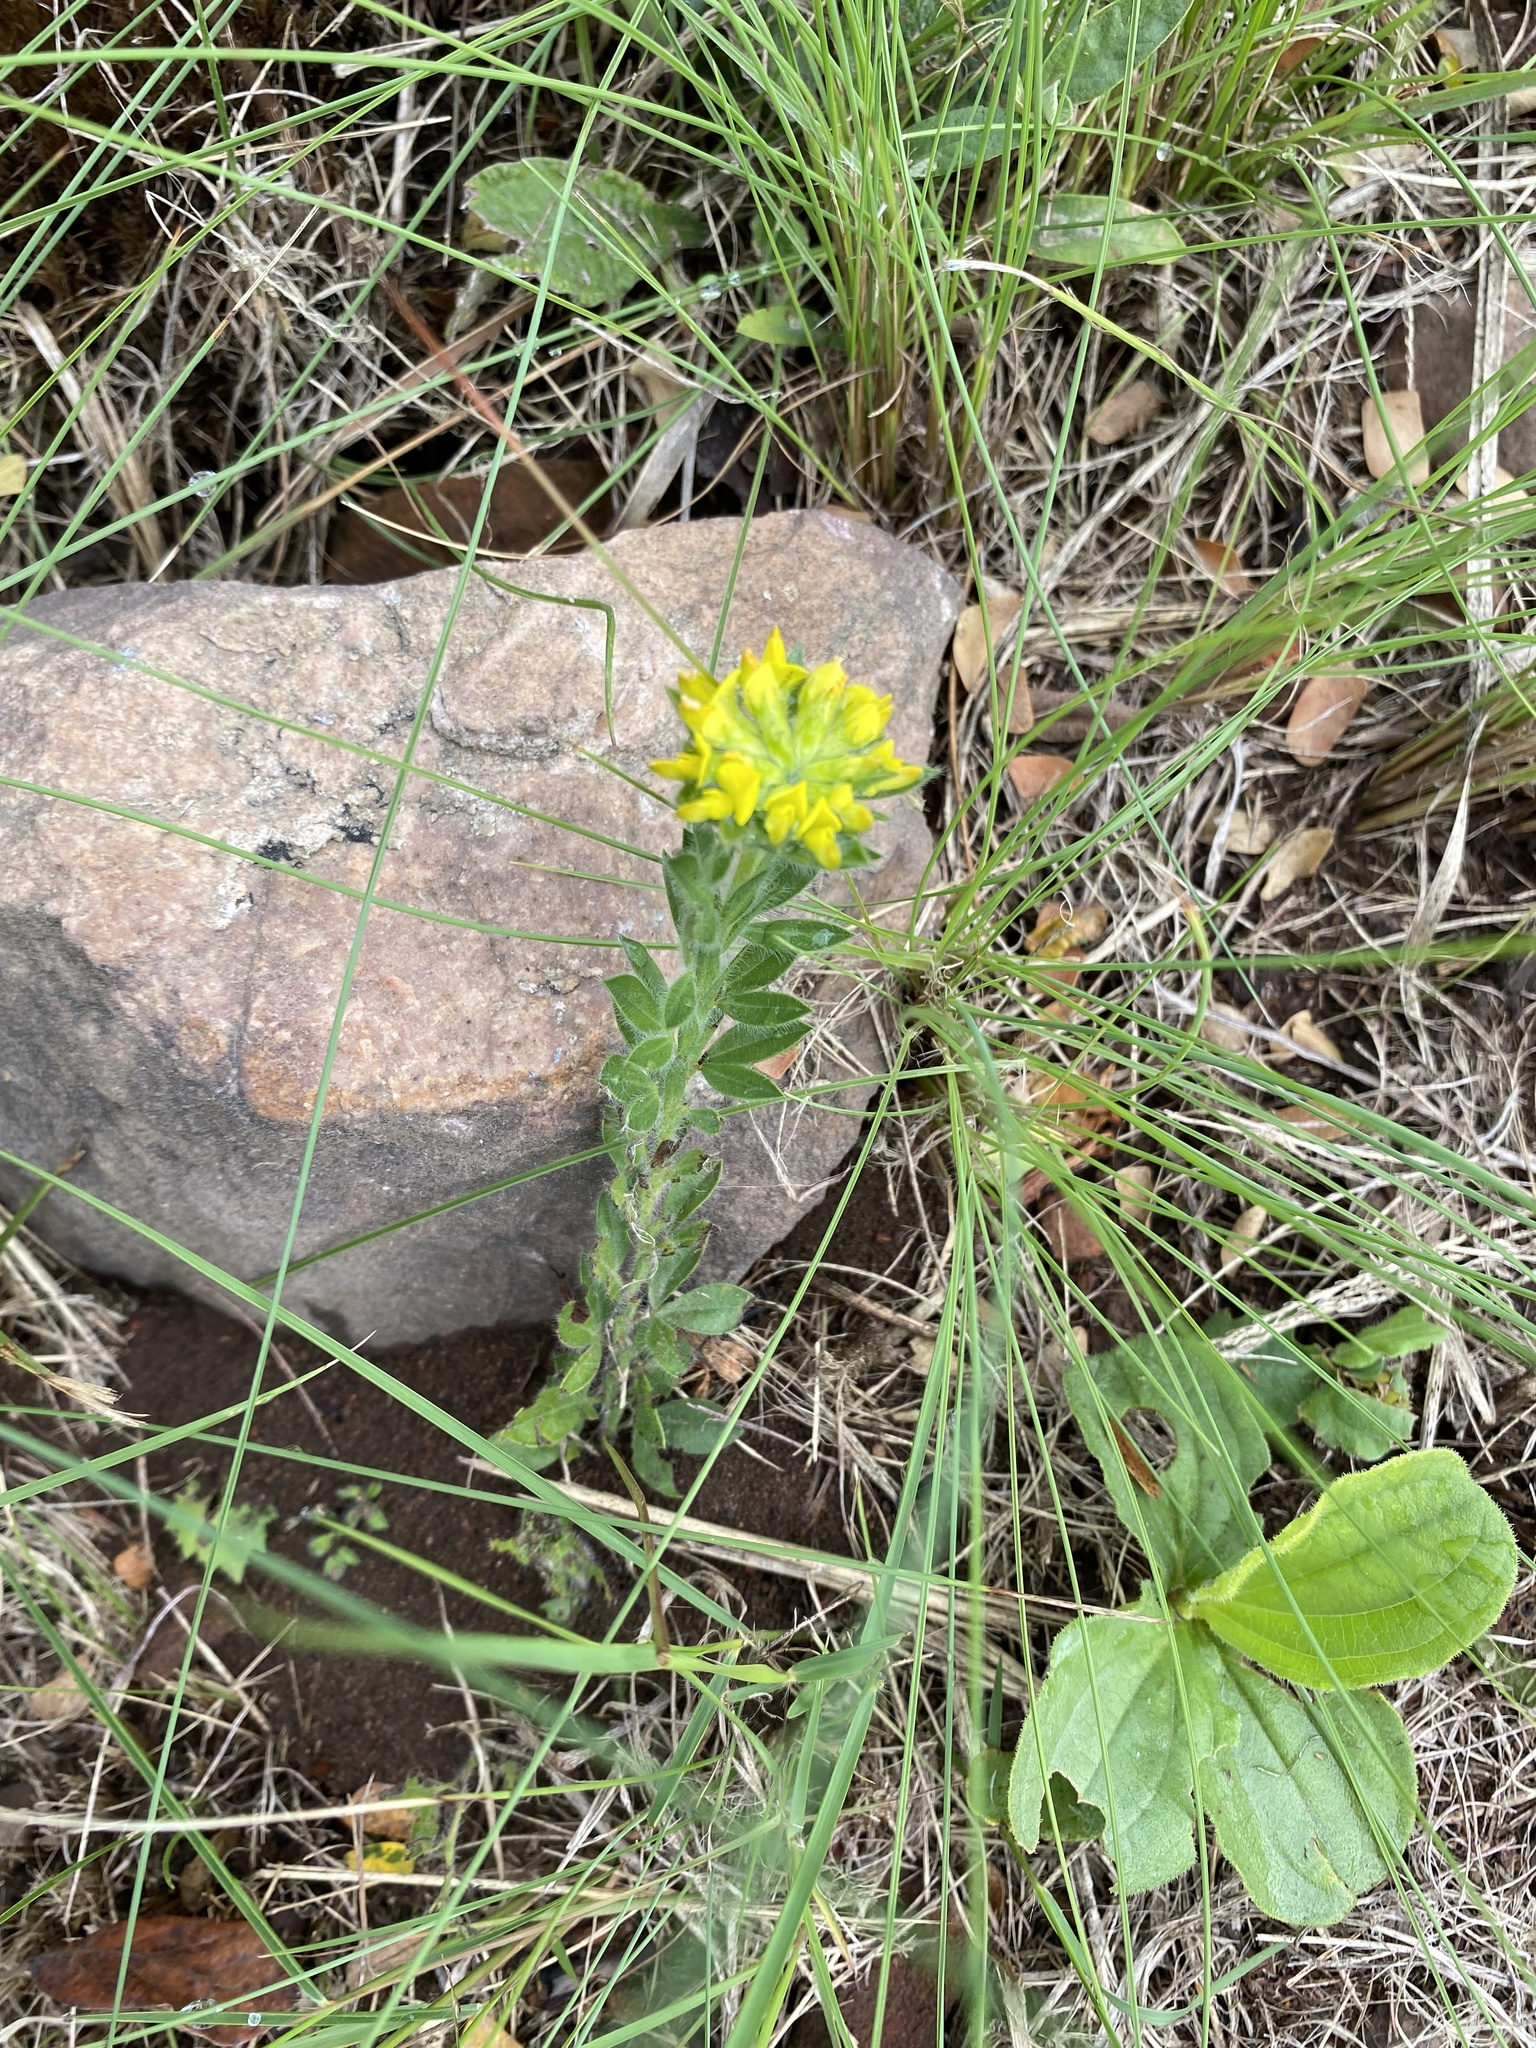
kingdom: Plantae
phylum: Tracheophyta
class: Magnoliopsida
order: Fabales
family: Fabaceae
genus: Leobordea
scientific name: Leobordea pulchra
